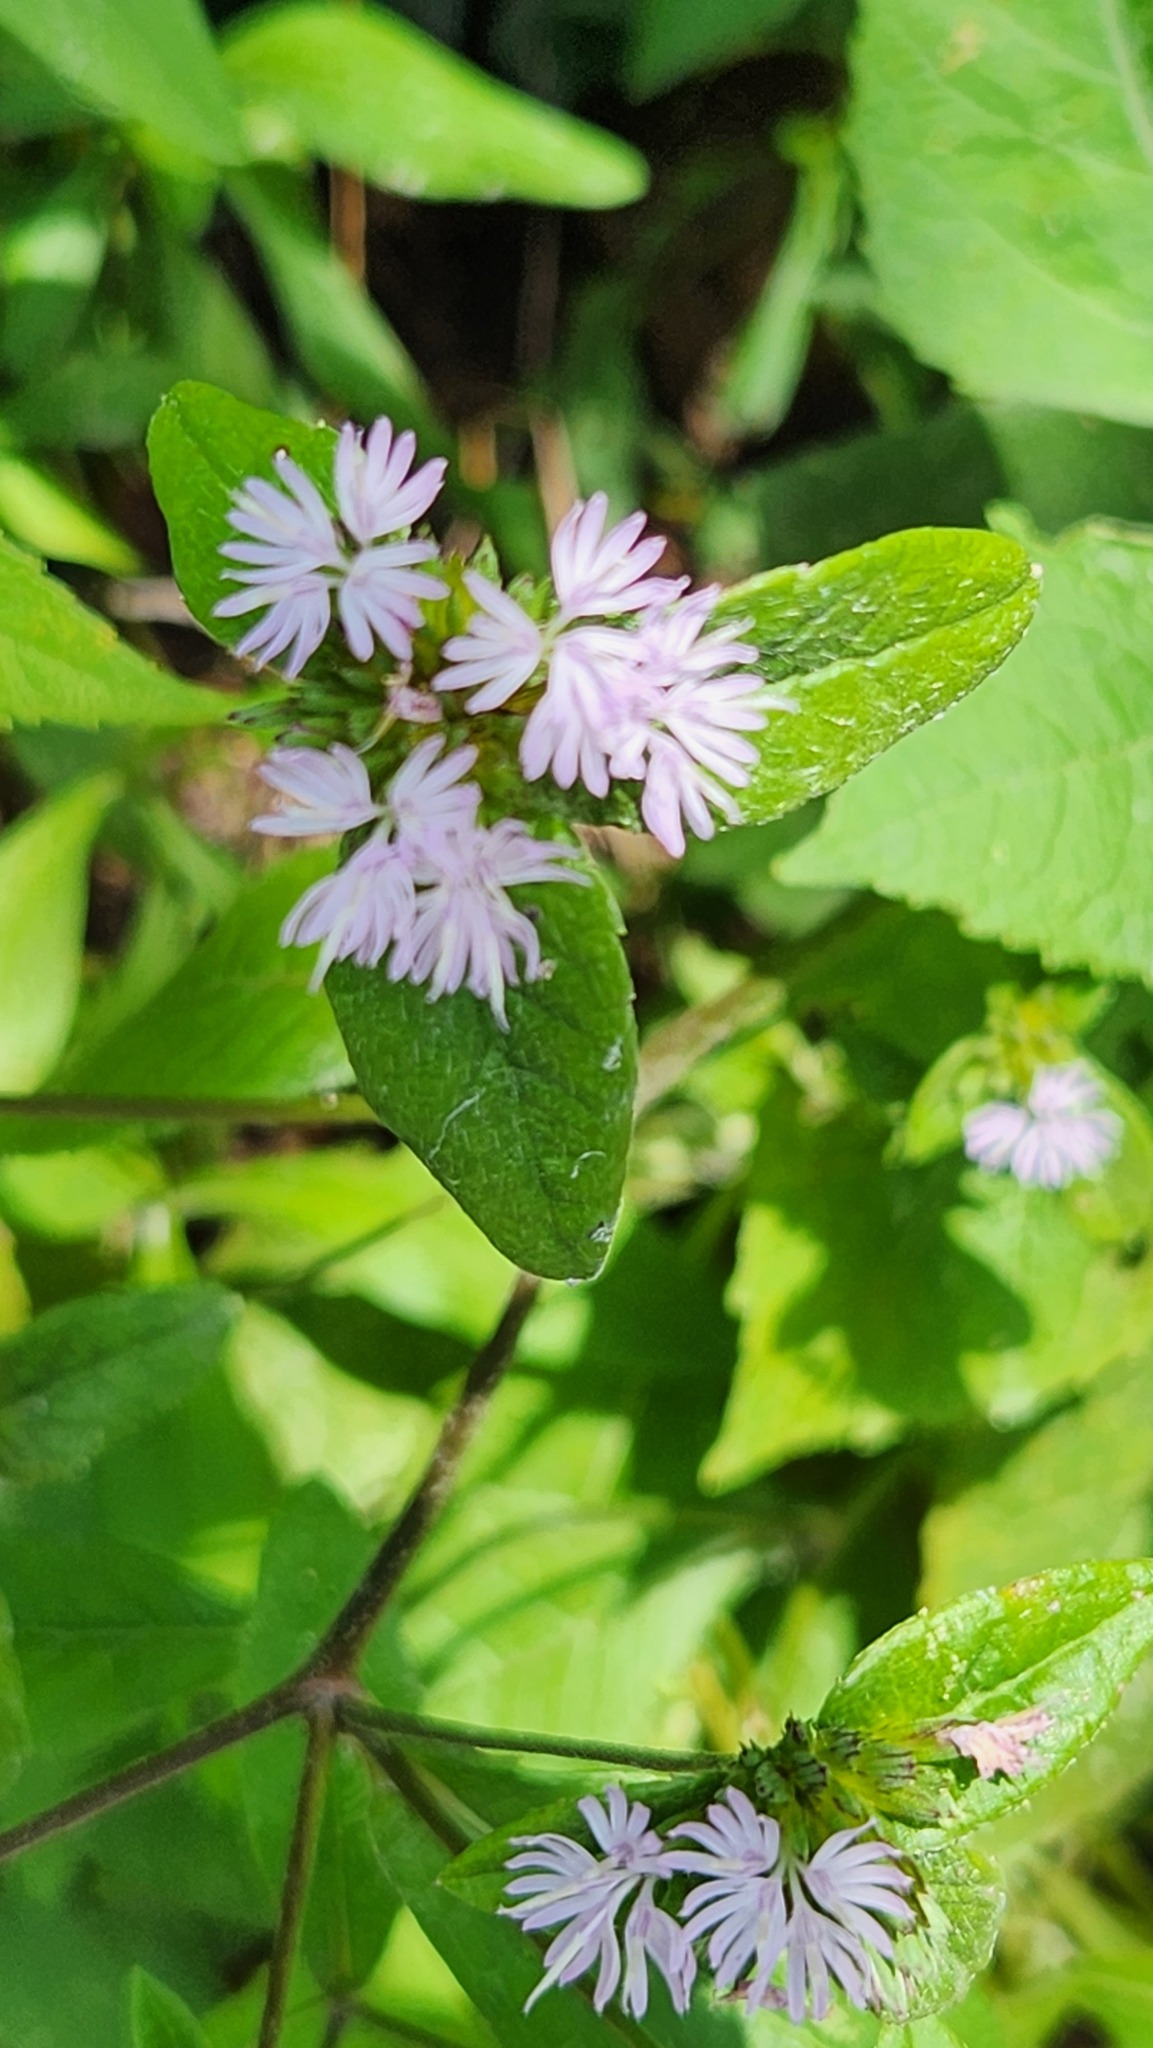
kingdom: Plantae
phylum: Tracheophyta
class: Magnoliopsida
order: Asterales
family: Asteraceae
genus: Elephantopus
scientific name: Elephantopus tomentosus
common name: Tobacco-weed
